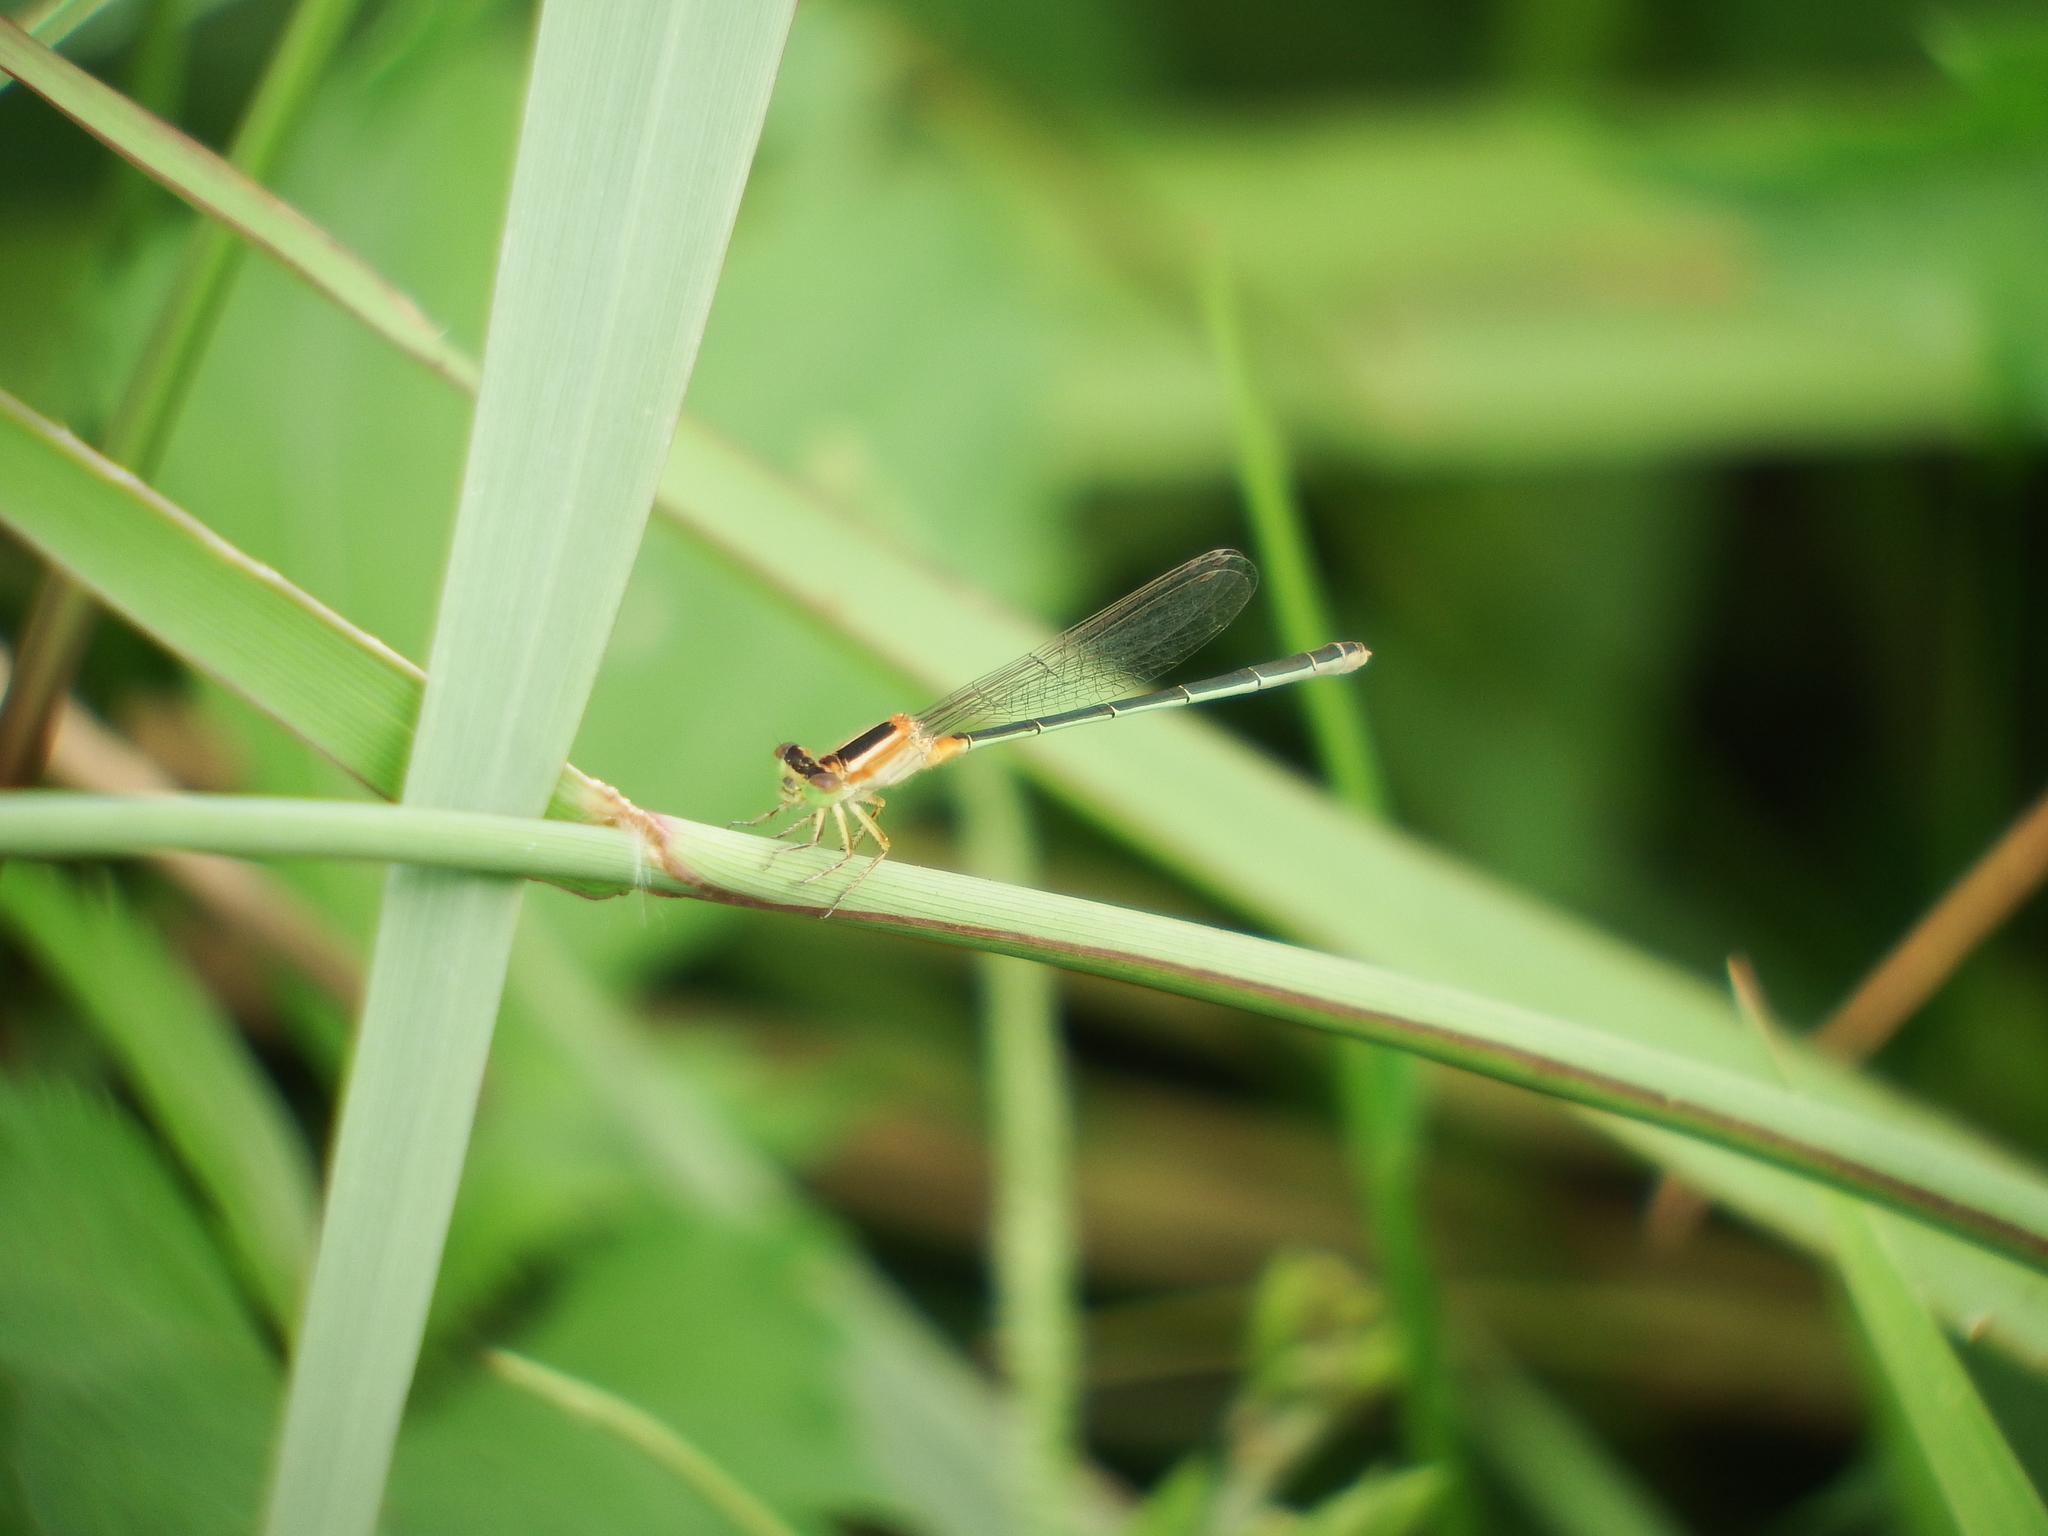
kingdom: Animalia
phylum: Arthropoda
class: Insecta
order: Odonata
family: Coenagrionidae
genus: Ischnura
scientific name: Ischnura senegalensis
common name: Tropical bluetail
